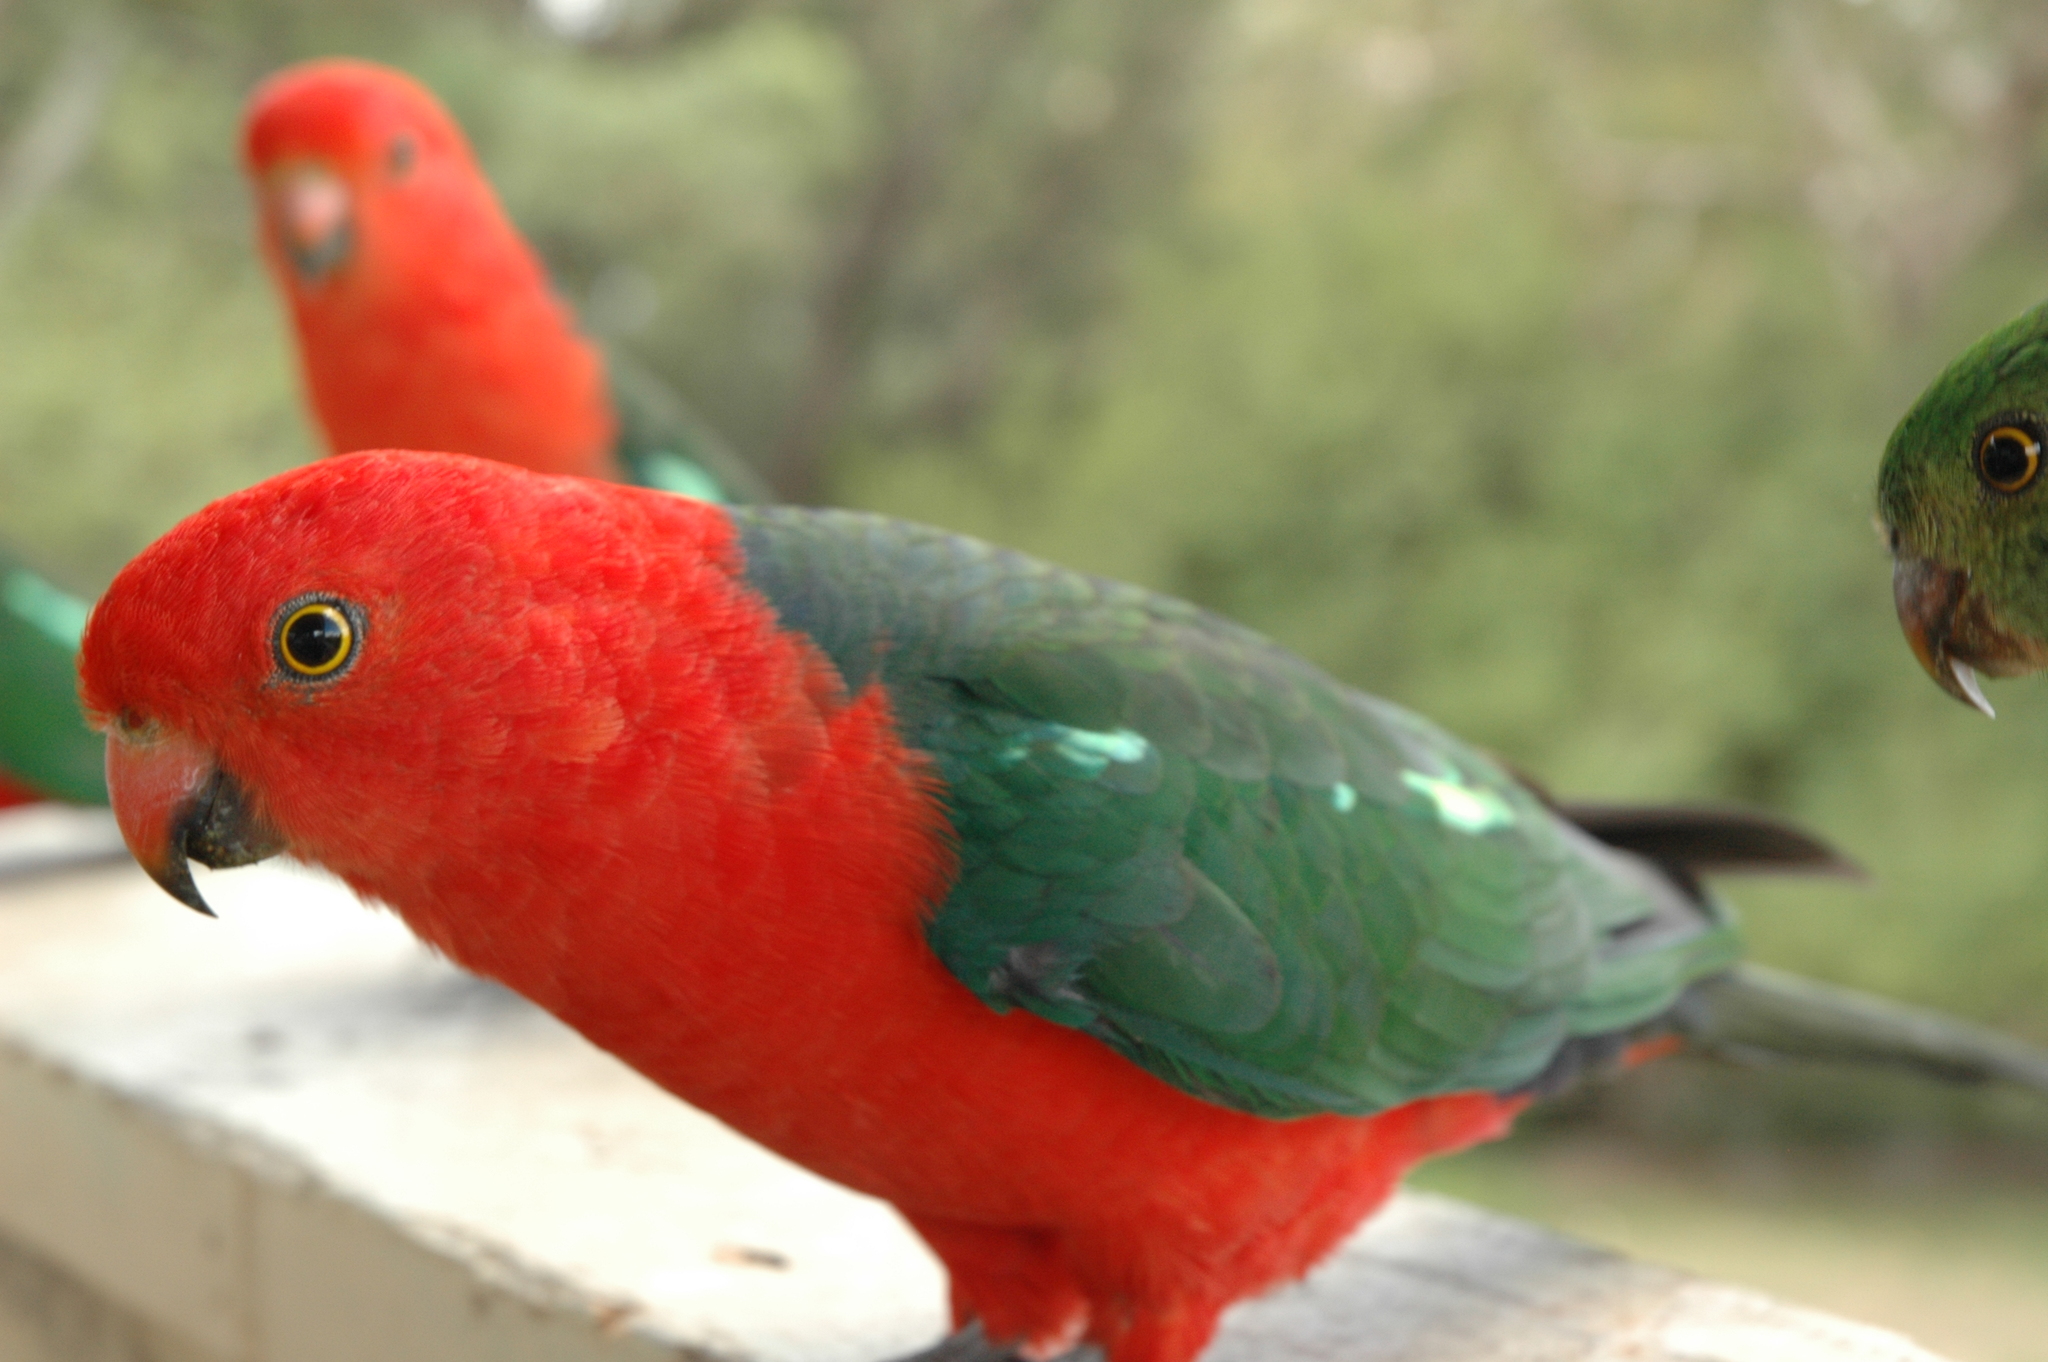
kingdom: Animalia
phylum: Chordata
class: Aves
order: Psittaciformes
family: Psittacidae
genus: Alisterus
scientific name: Alisterus scapularis
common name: Australian king parrot
